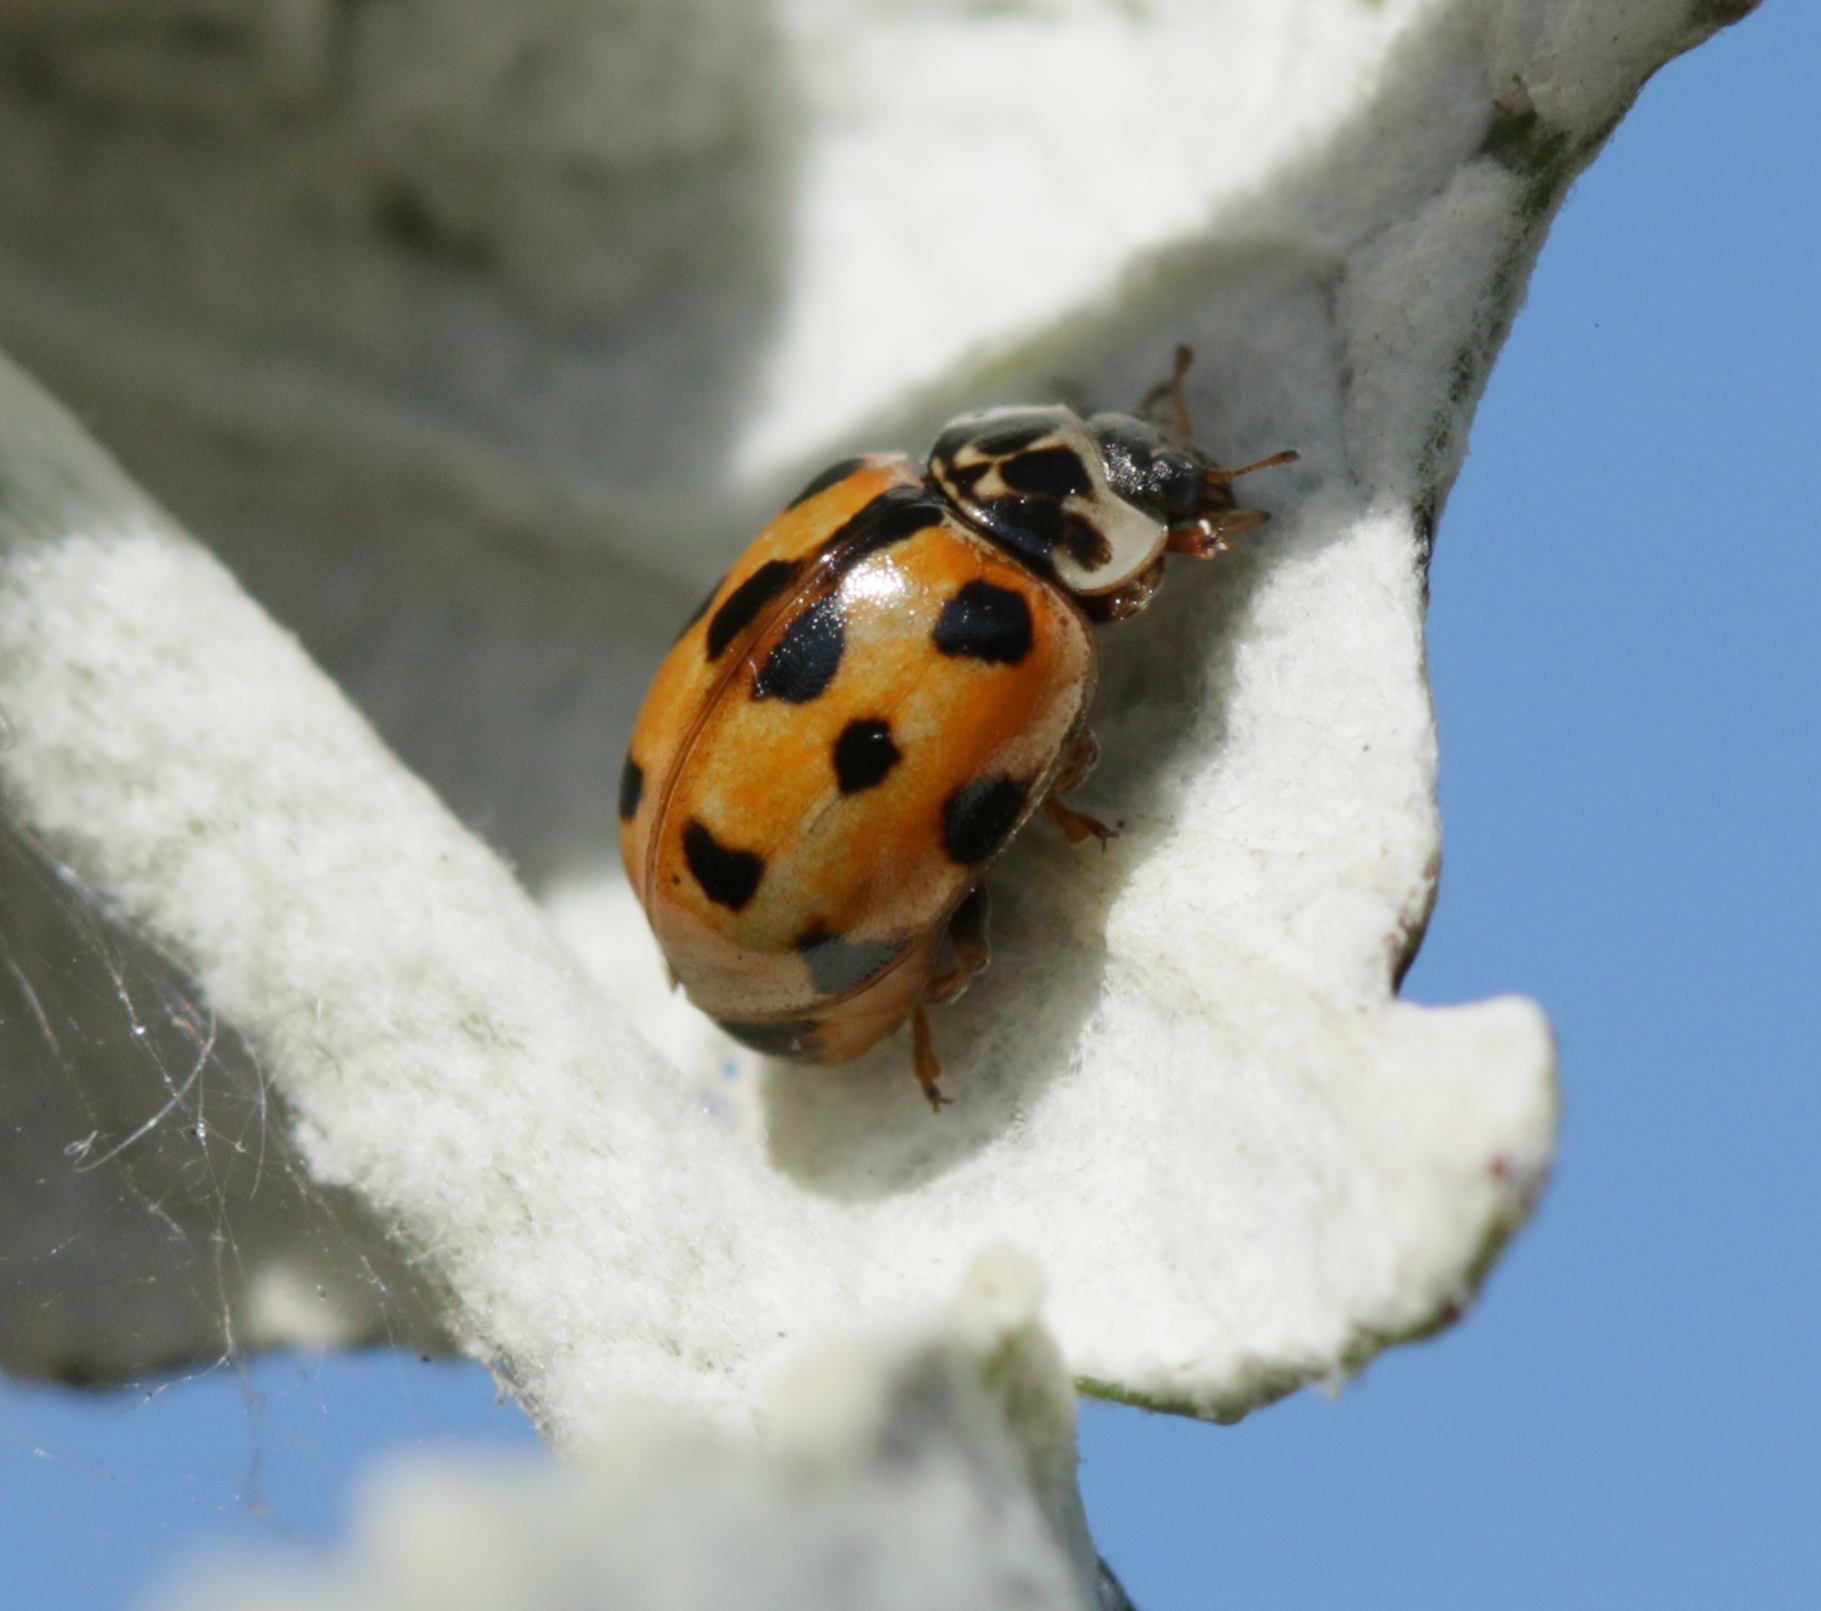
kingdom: Animalia
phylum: Arthropoda
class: Insecta
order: Coleoptera
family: Coccinellidae
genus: Adalia
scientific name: Adalia decempunctata
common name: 10-spot ladybird
